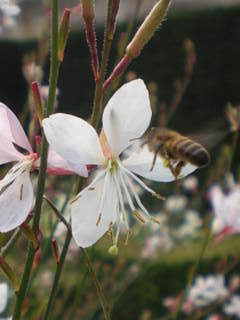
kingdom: Animalia
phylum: Arthropoda
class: Insecta
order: Hymenoptera
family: Apidae
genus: Apis
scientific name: Apis mellifera
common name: Honey bee
